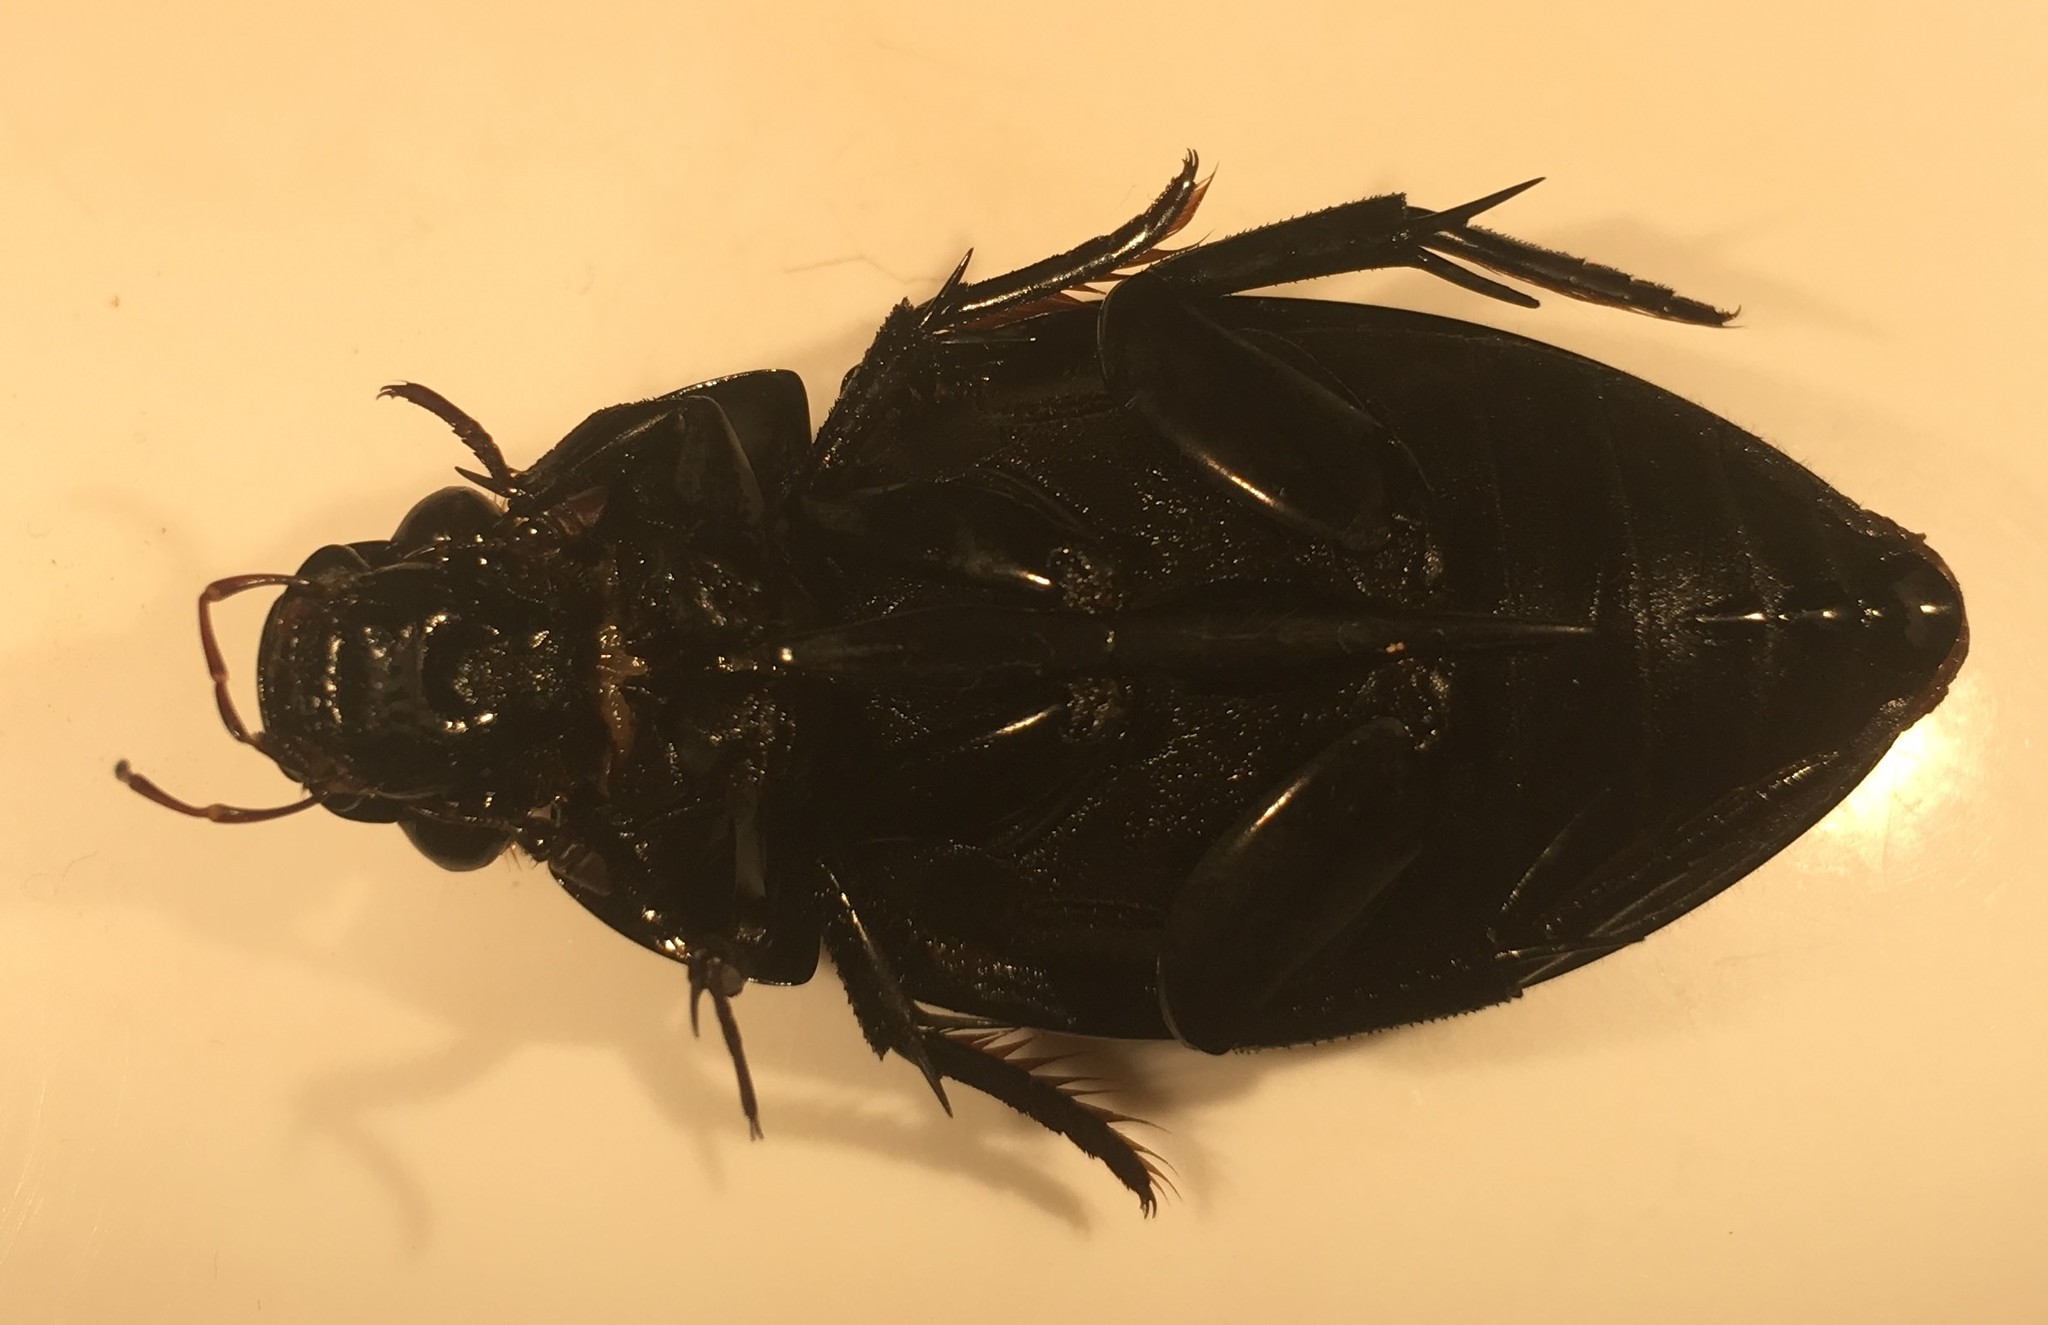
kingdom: Animalia
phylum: Arthropoda
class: Insecta
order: Coleoptera
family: Hydrophilidae
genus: Hydrophilus
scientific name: Hydrophilus ovatus
